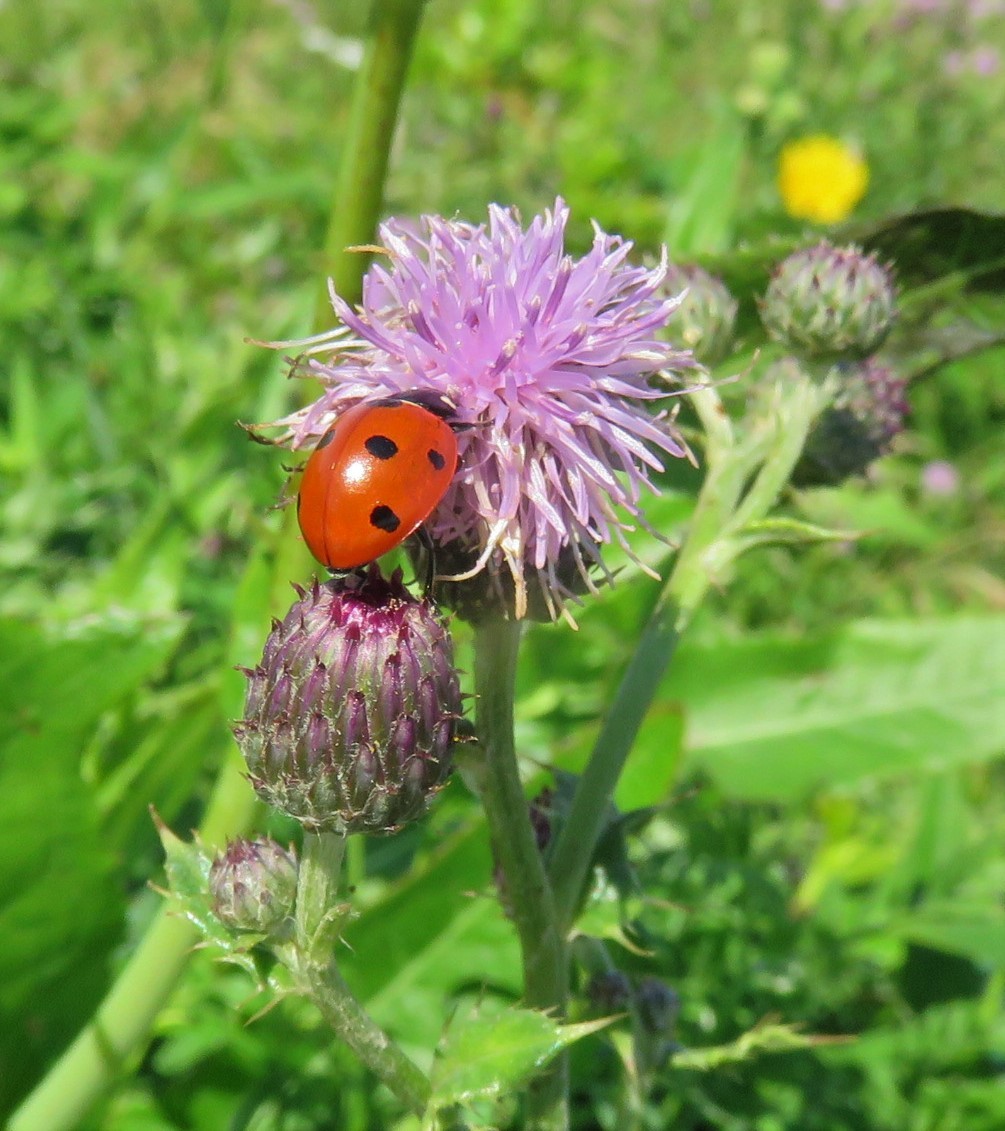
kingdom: Animalia
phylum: Arthropoda
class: Insecta
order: Coleoptera
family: Coccinellidae
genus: Coccinella
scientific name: Coccinella septempunctata
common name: Sevenspotted lady beetle
